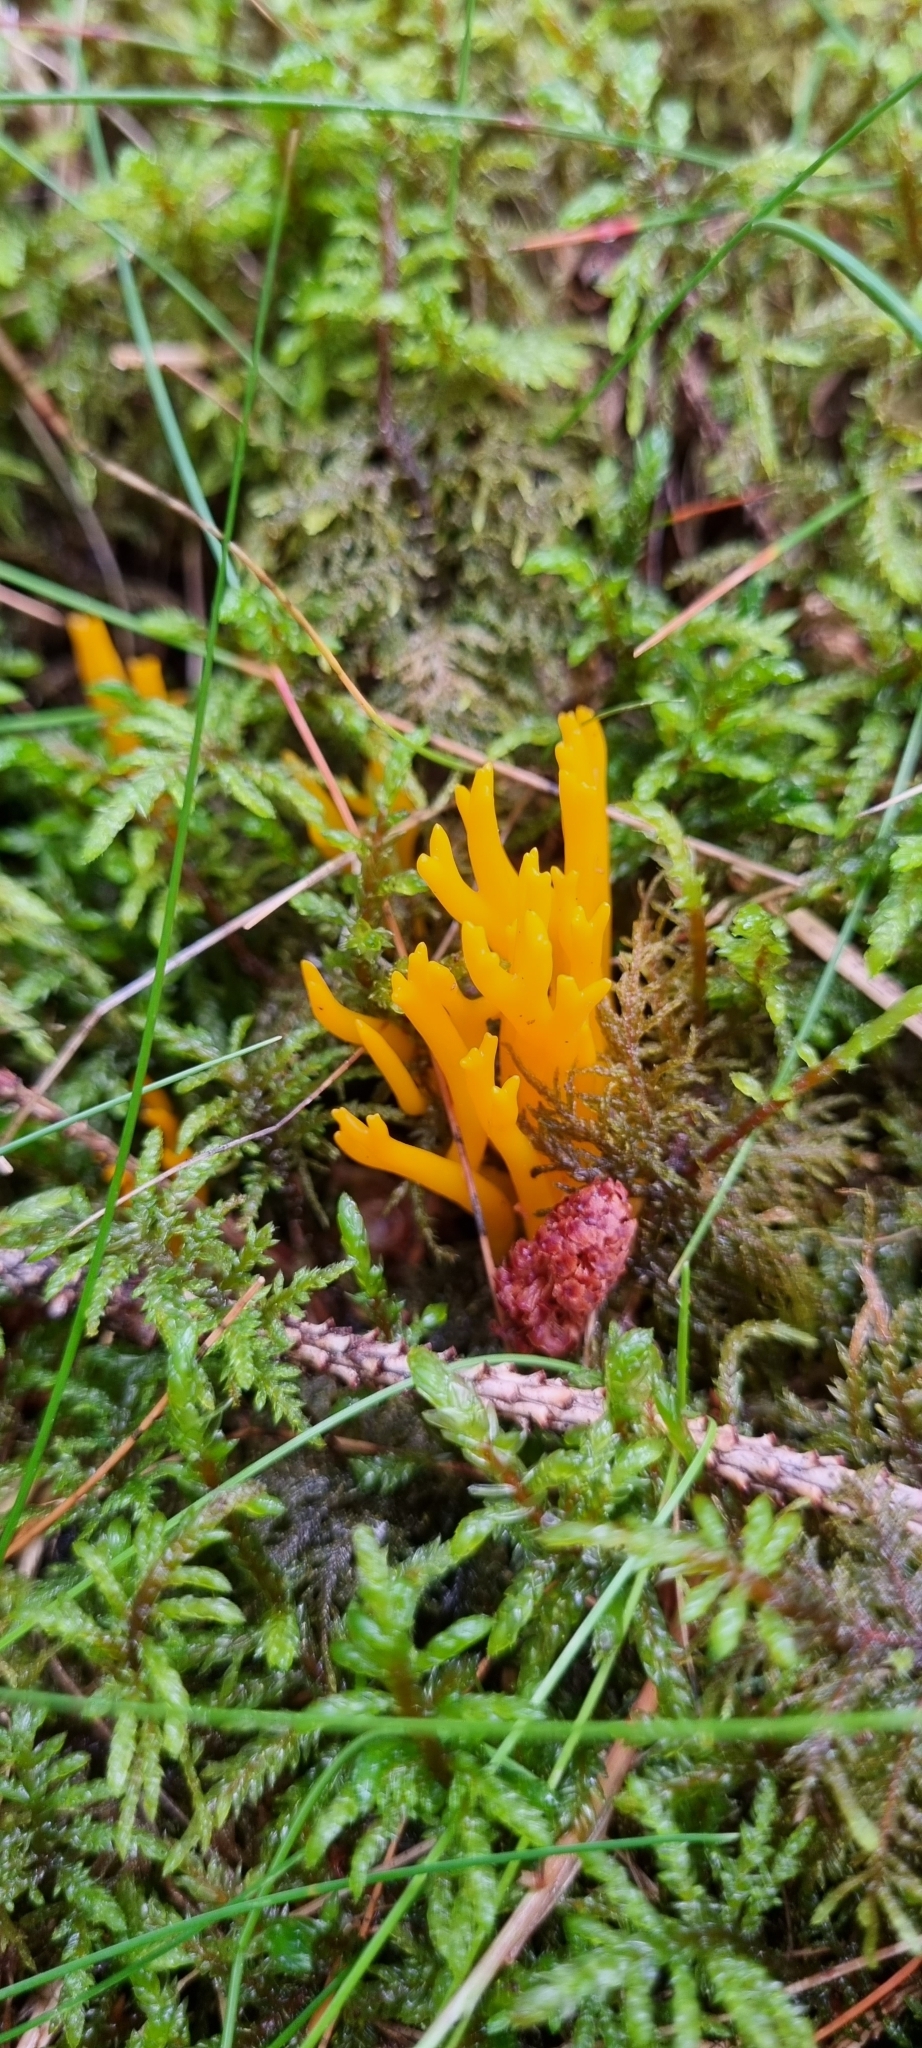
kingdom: Fungi
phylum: Basidiomycota
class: Dacrymycetes
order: Dacrymycetales
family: Dacrymycetaceae
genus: Calocera
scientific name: Calocera viscosa
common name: Yellow stagshorn
